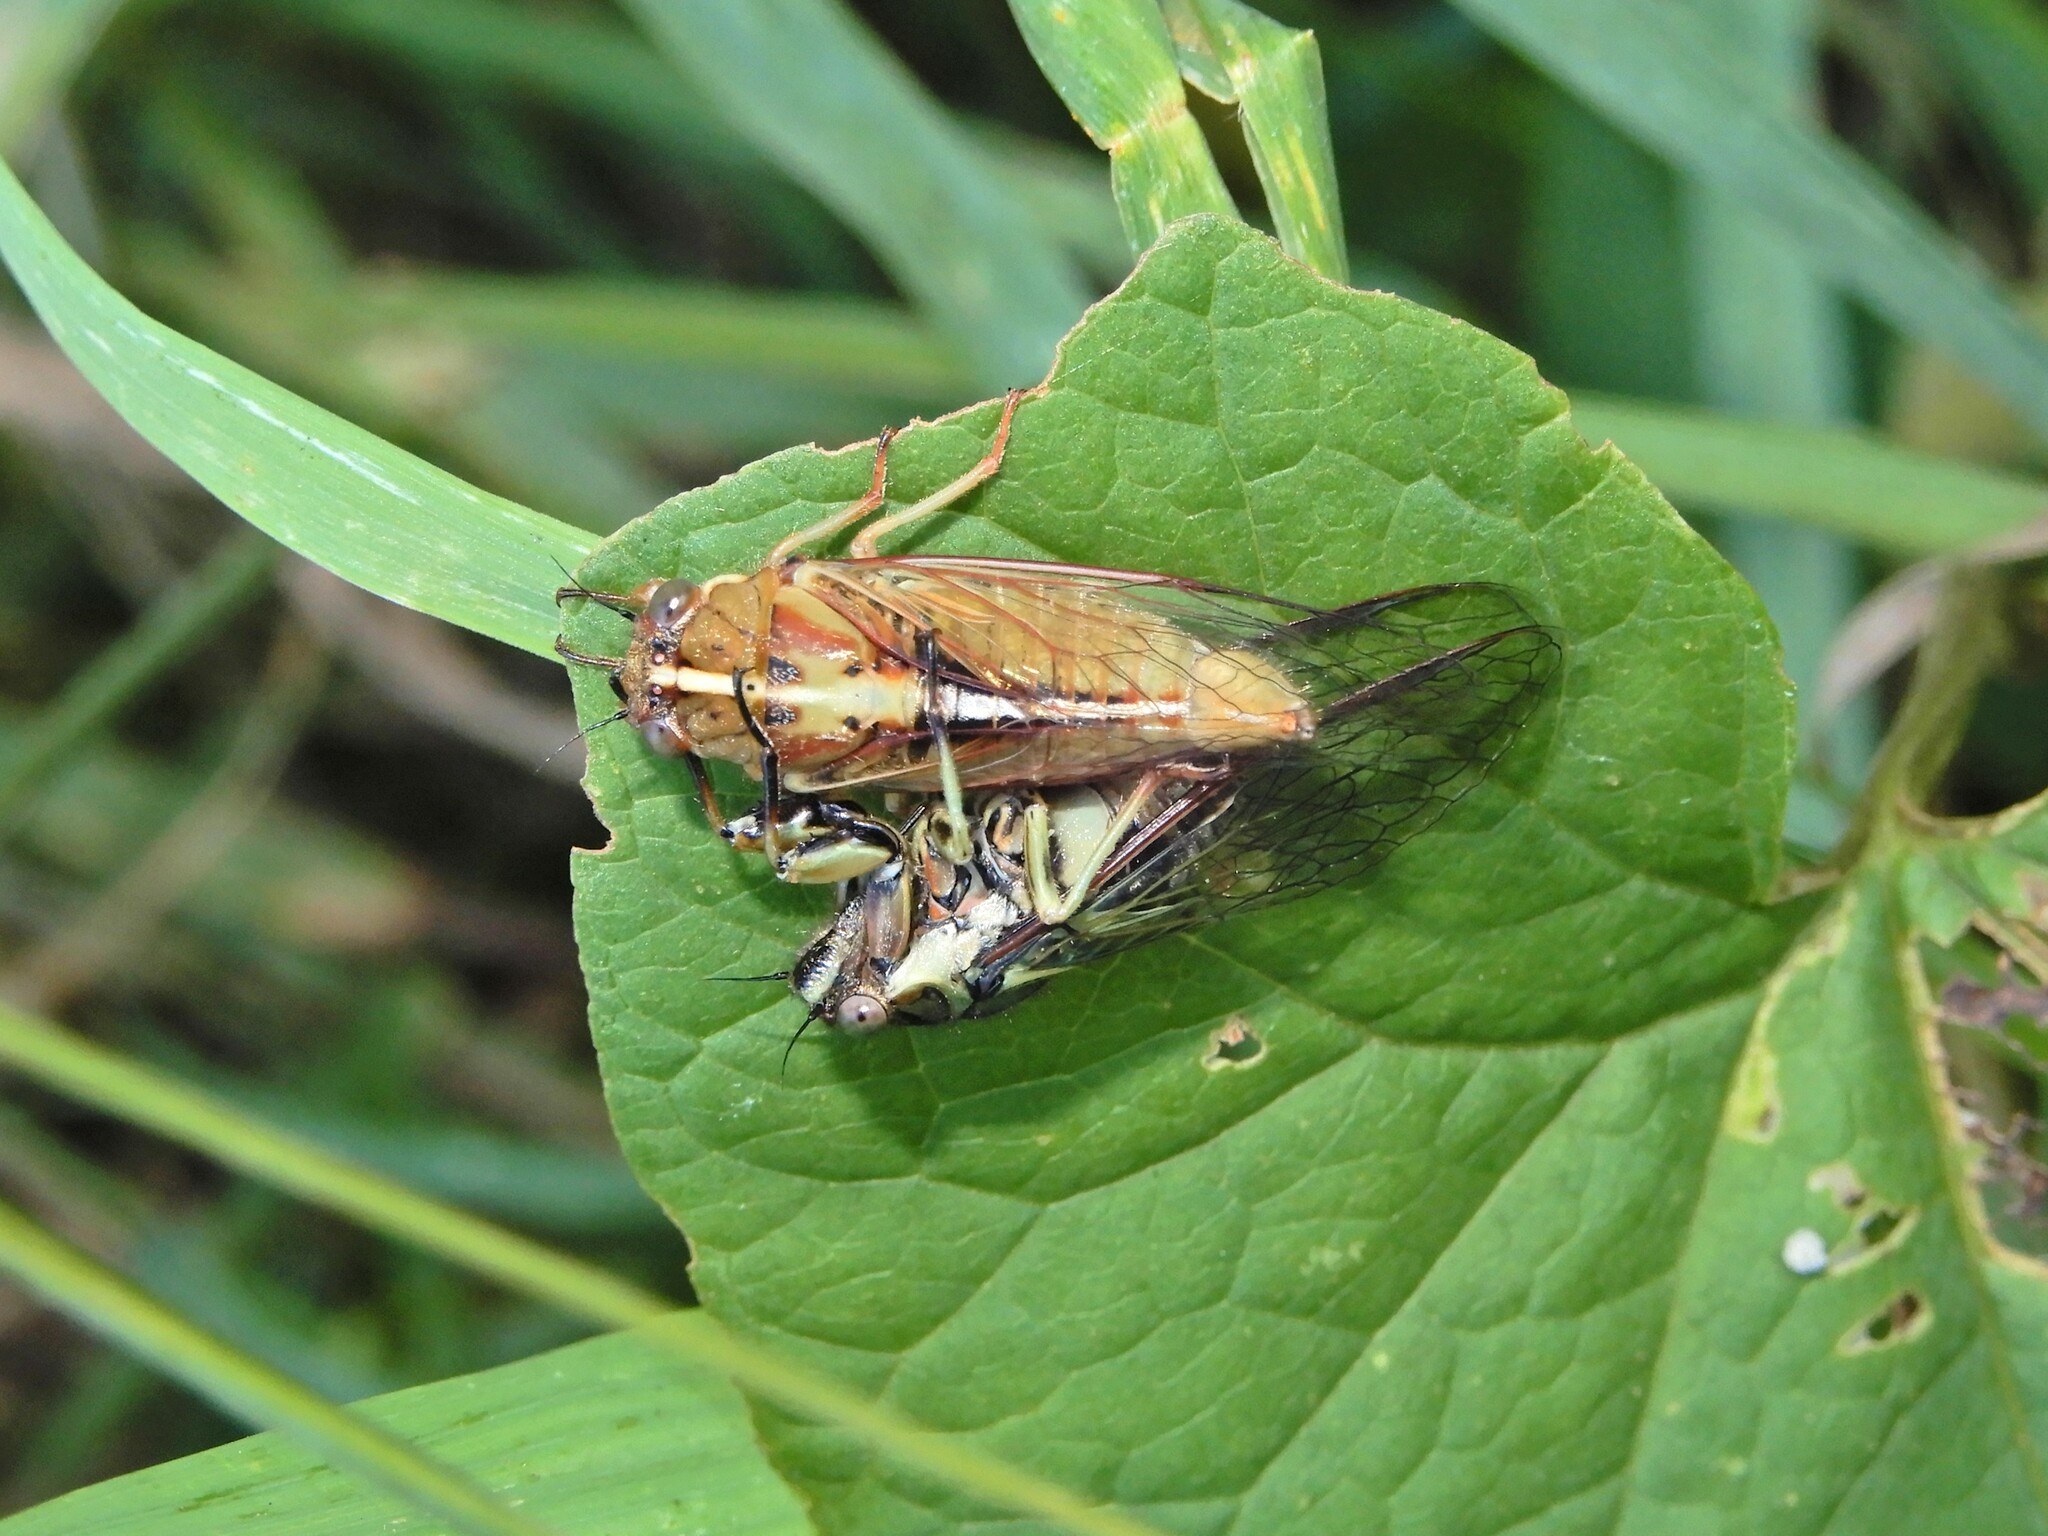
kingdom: Animalia
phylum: Arthropoda
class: Insecta
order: Hemiptera
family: Cicadidae
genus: Kikihia
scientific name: Kikihia muta
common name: Variable cicada
